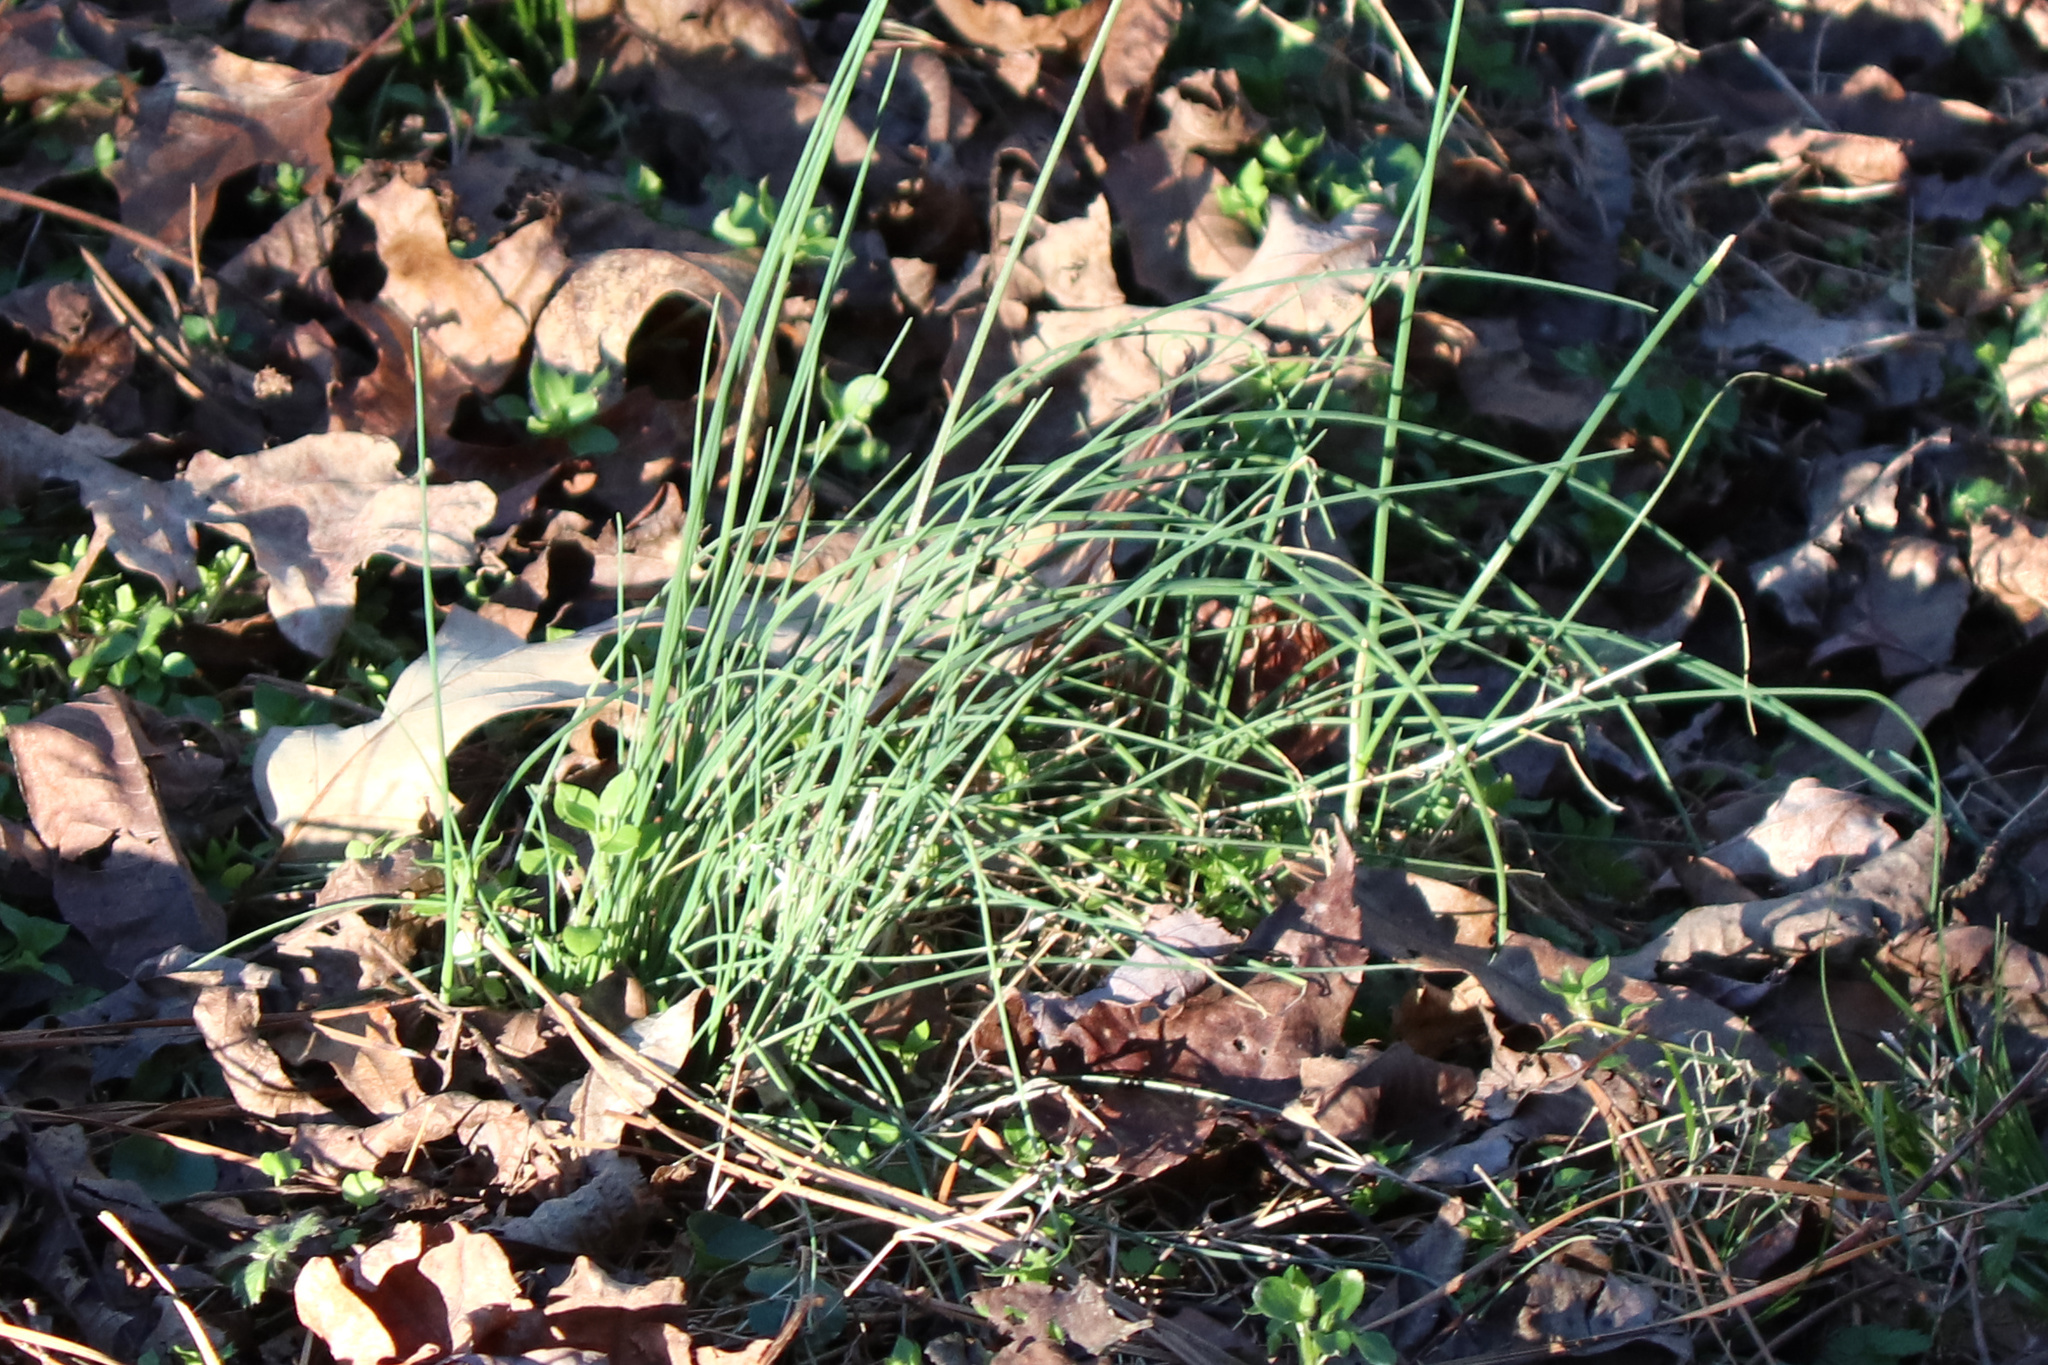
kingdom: Plantae
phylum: Tracheophyta
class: Liliopsida
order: Asparagales
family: Amaryllidaceae
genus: Allium
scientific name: Allium vineale
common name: Crow garlic
